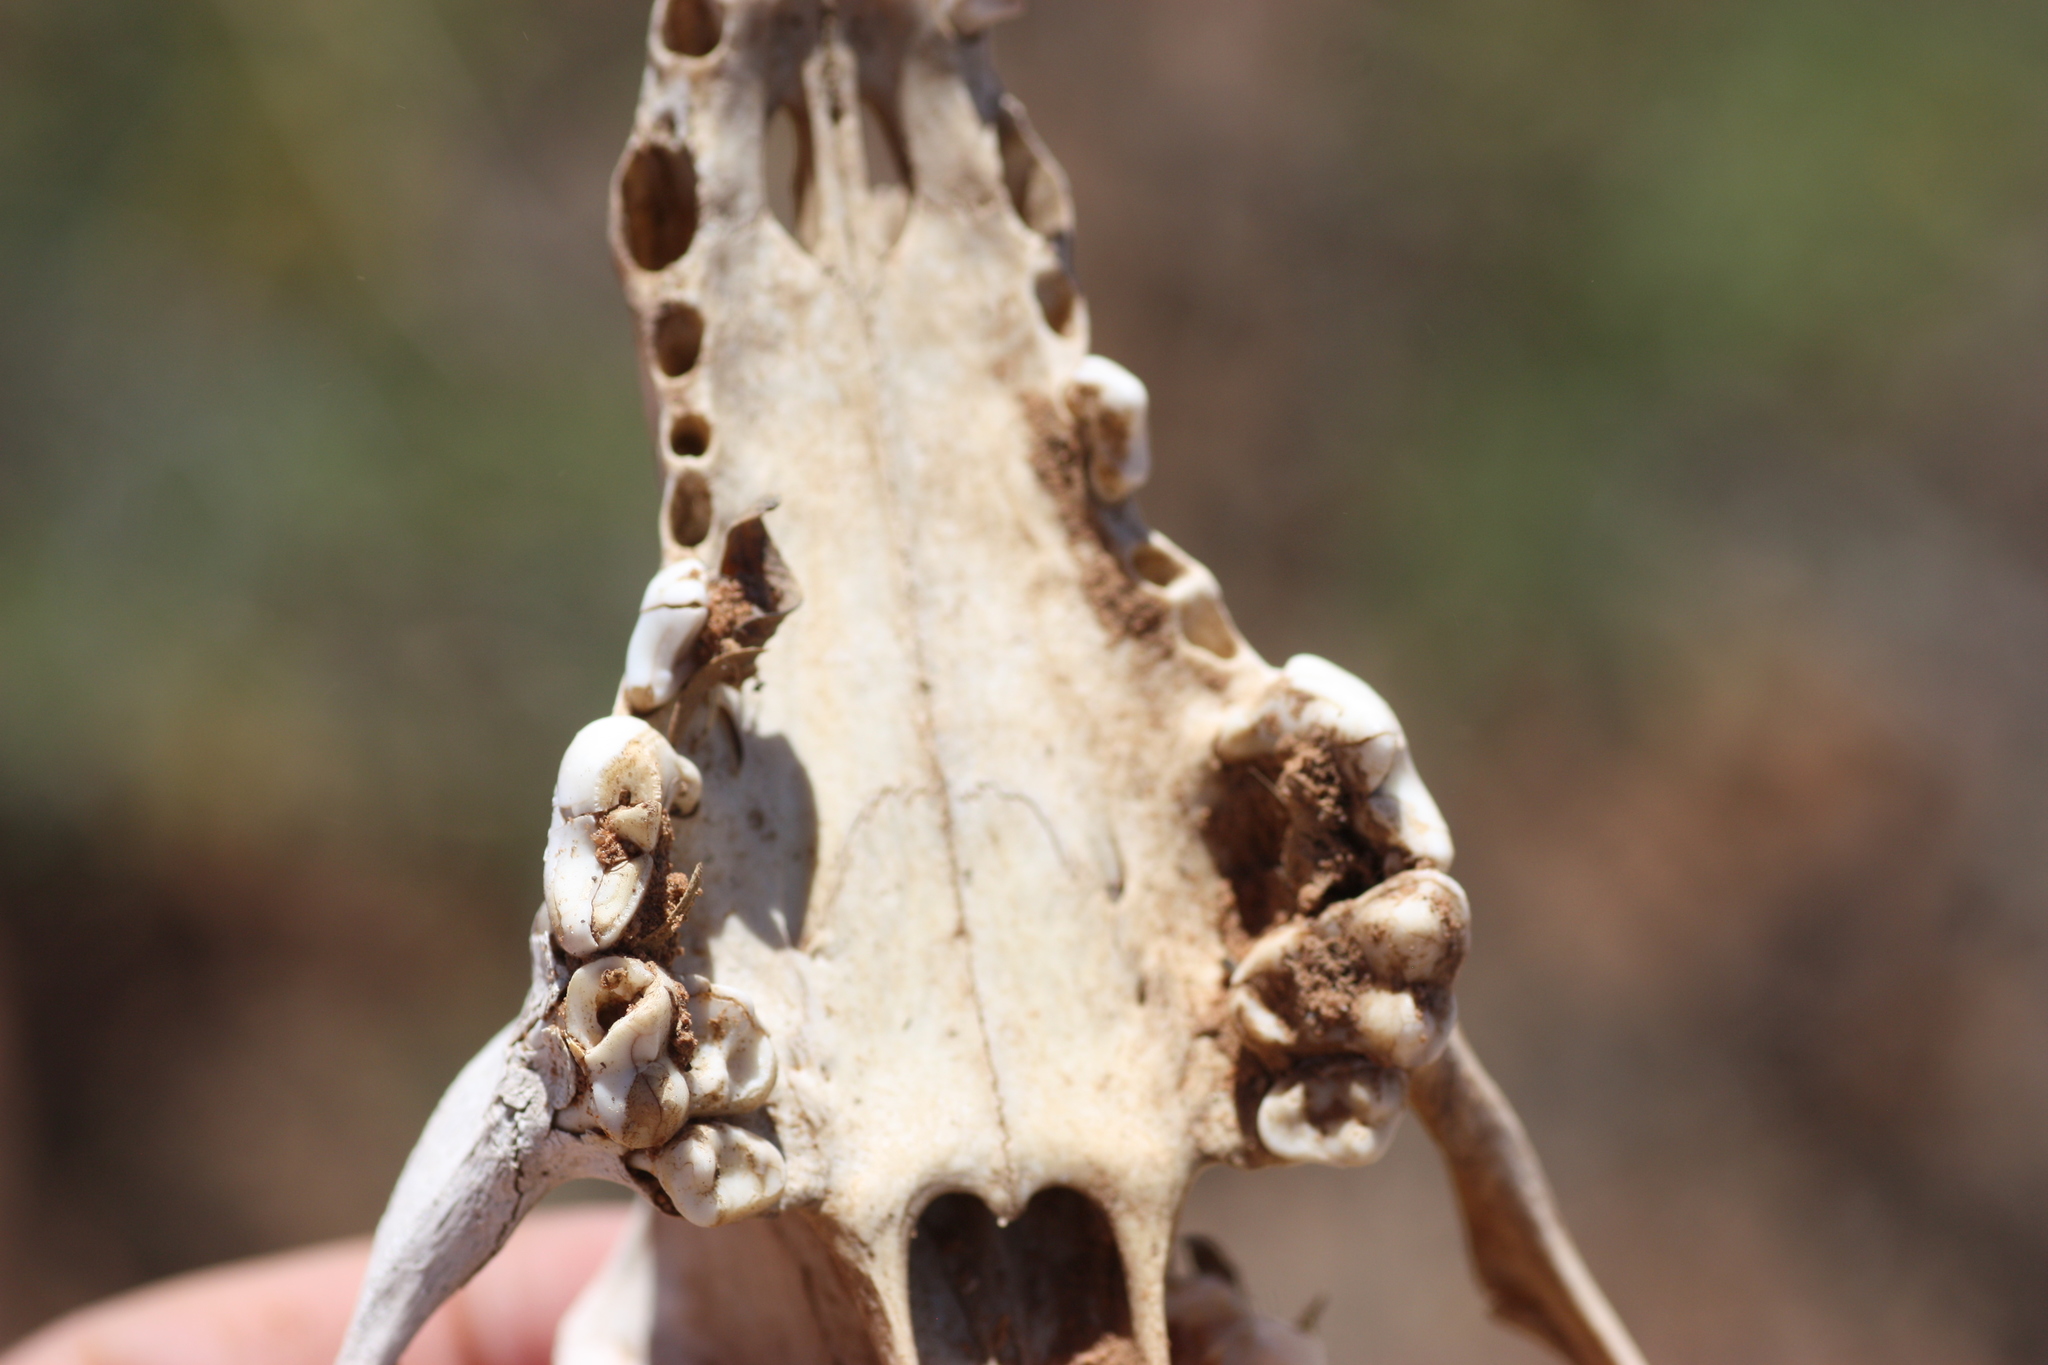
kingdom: Animalia
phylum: Chordata
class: Mammalia
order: Carnivora
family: Canidae
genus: Canis
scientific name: Canis lupus
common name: Gray wolf
